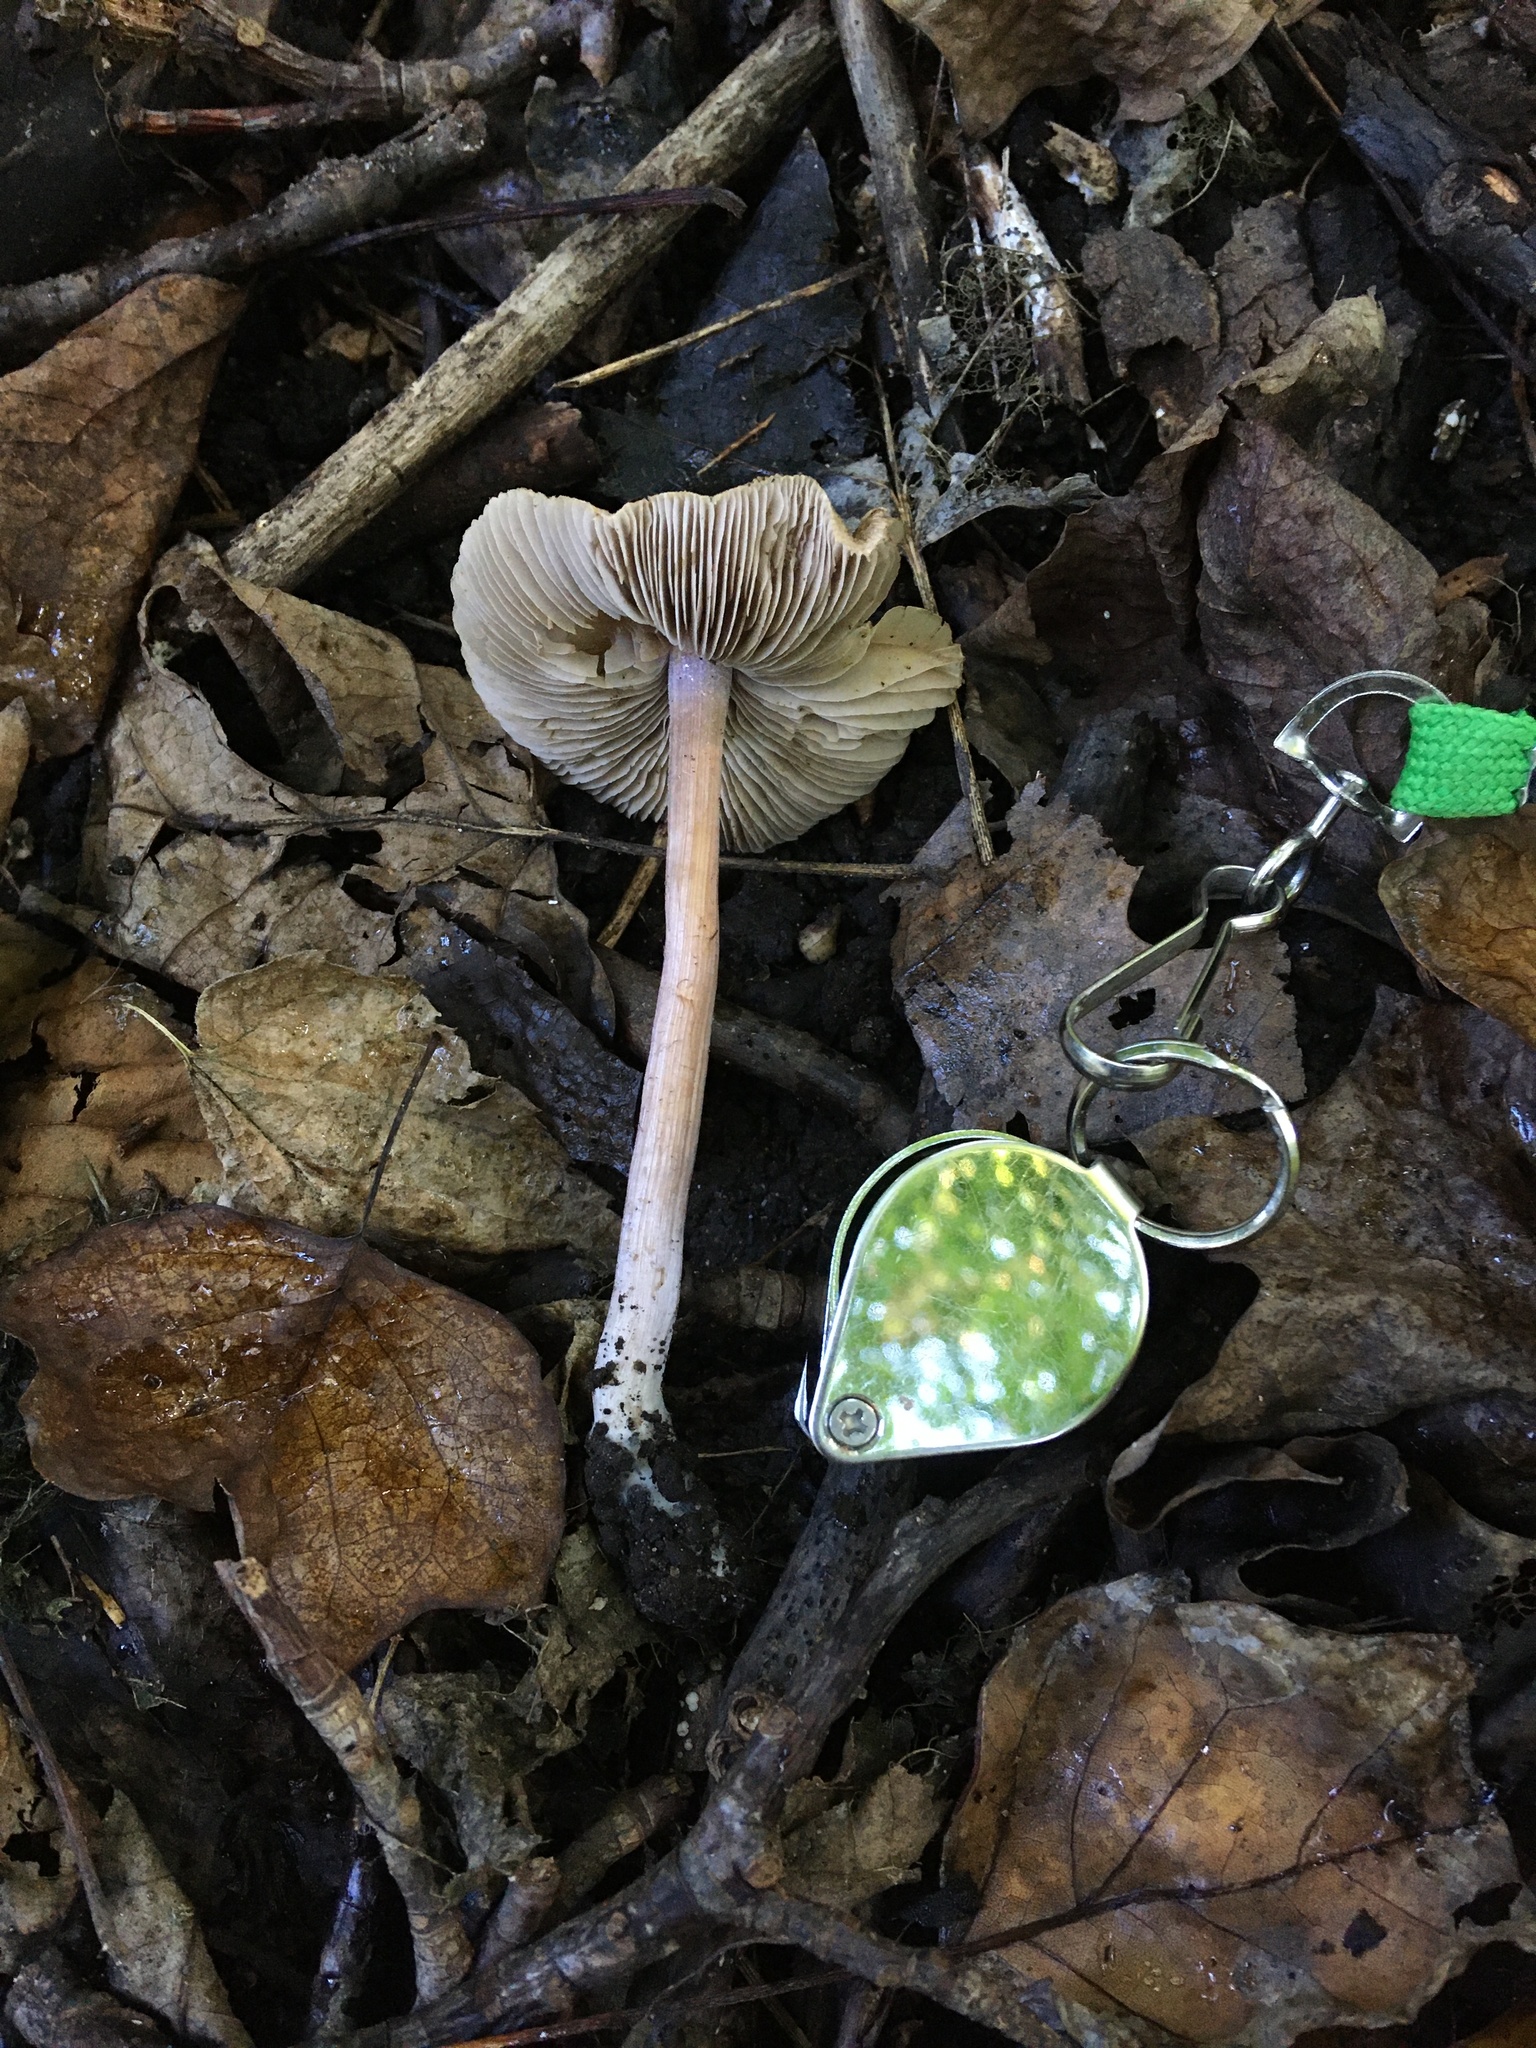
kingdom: Fungi
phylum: Basidiomycota
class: Agaricomycetes
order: Agaricales
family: Inocybaceae
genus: Inocybe
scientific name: Inocybe paleoveneta
